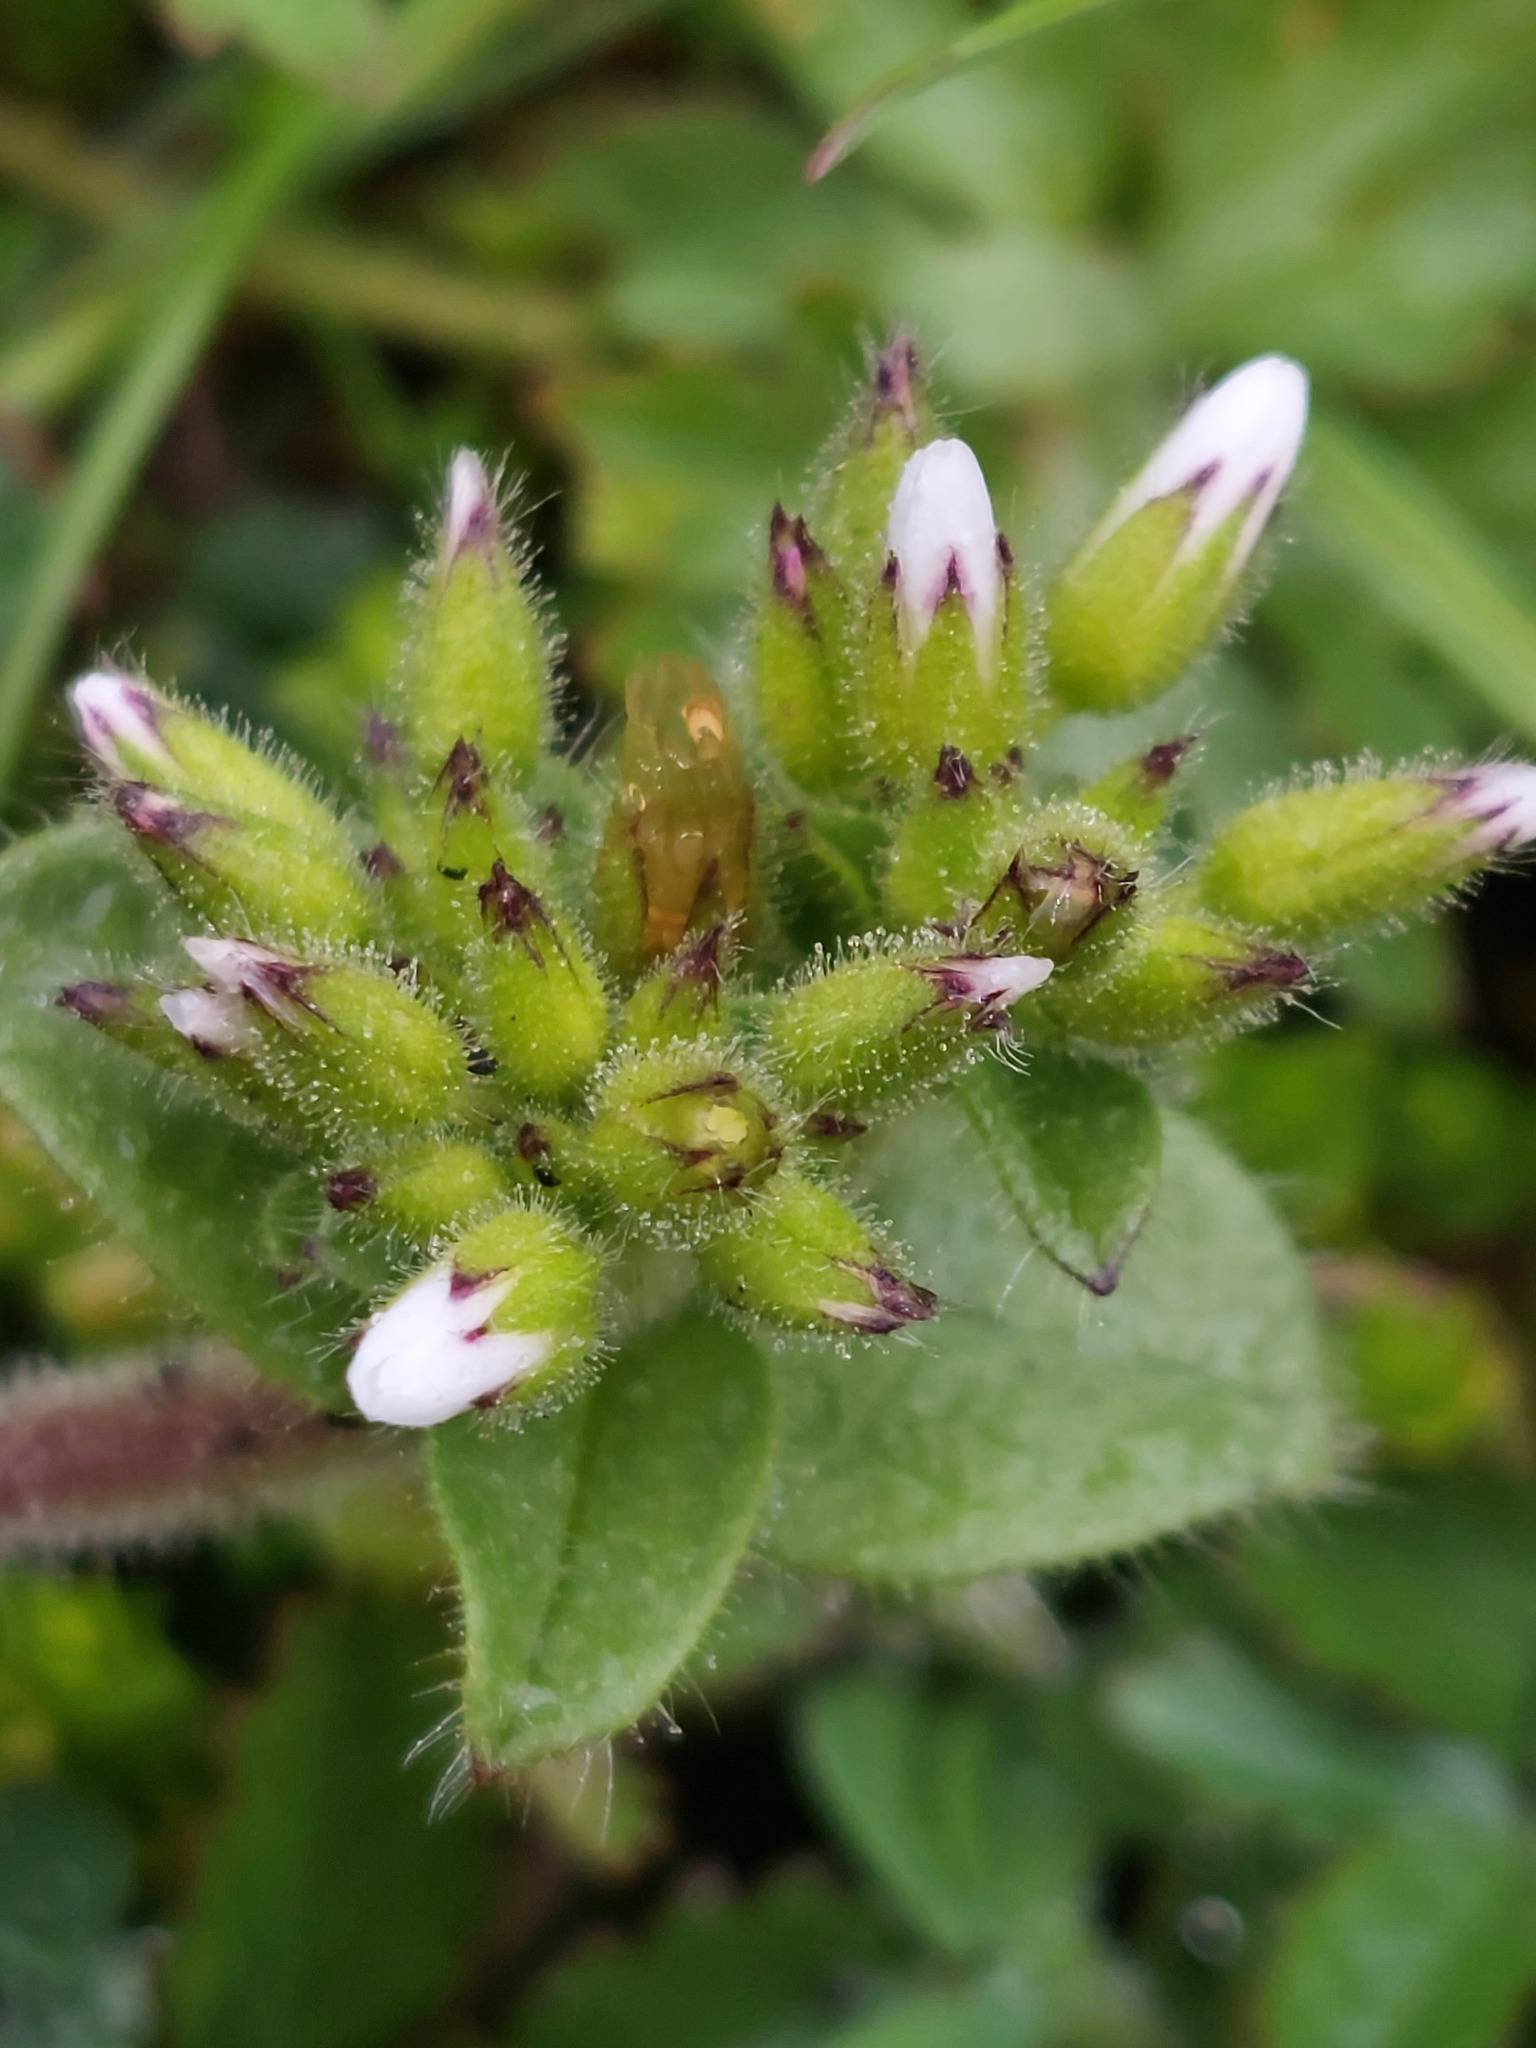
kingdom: Plantae
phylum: Tracheophyta
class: Magnoliopsida
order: Caryophyllales
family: Caryophyllaceae
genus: Cerastium
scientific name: Cerastium glomeratum
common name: Sticky chickweed
